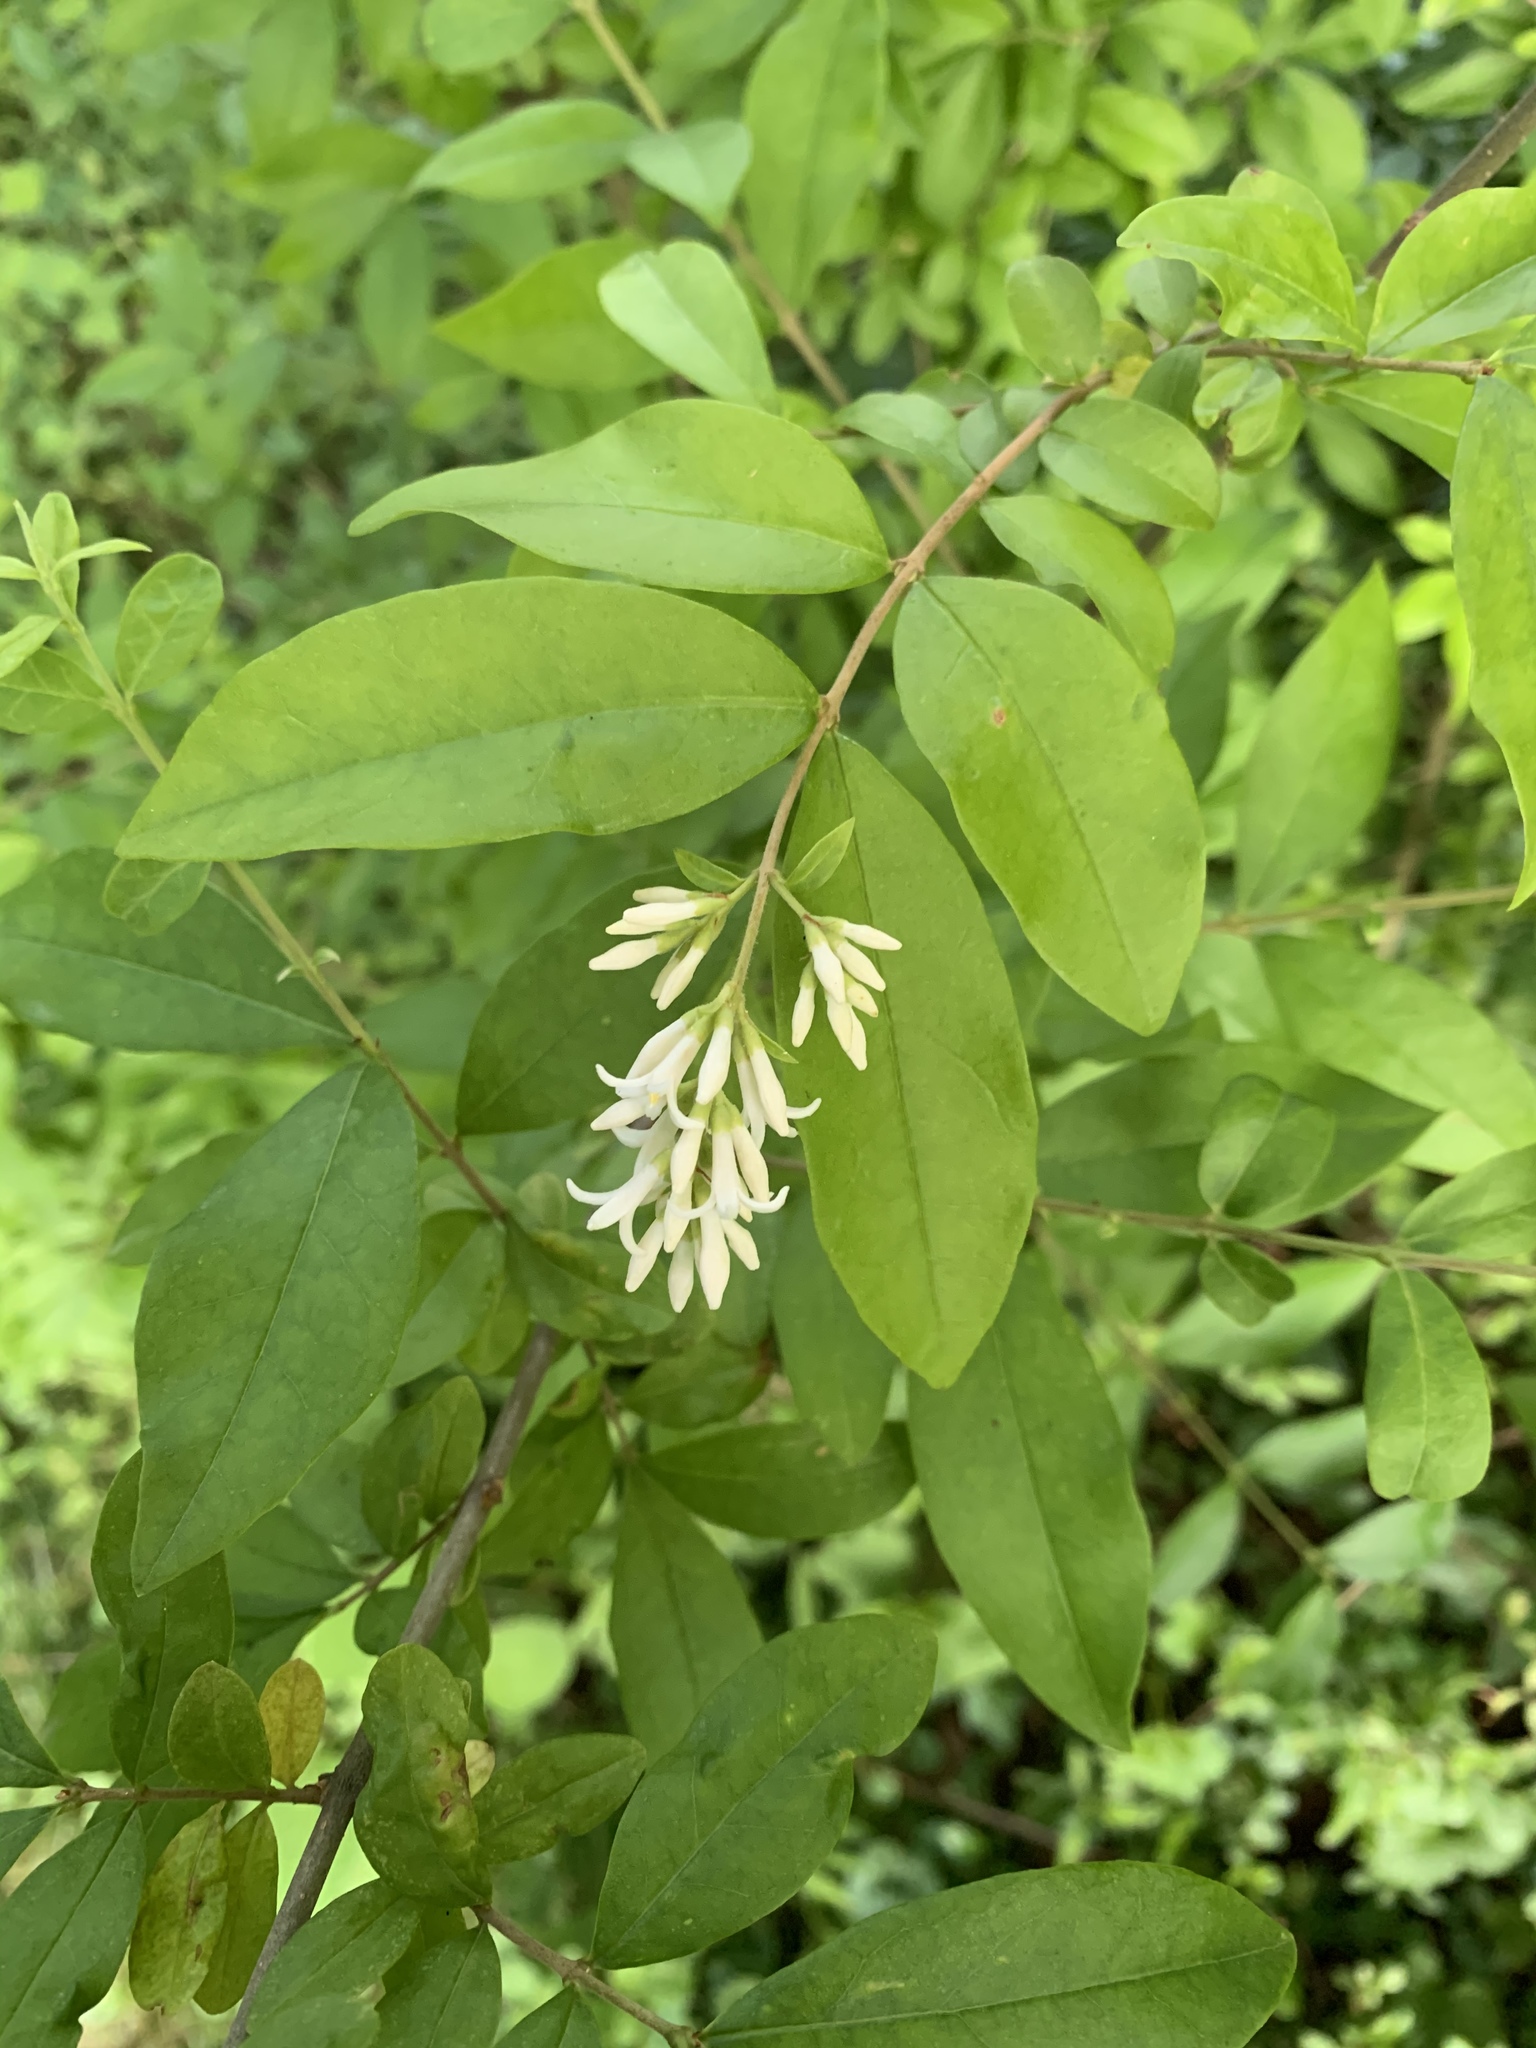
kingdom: Plantae
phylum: Tracheophyta
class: Magnoliopsida
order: Lamiales
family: Oleaceae
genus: Ligustrum
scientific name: Ligustrum obtusifolium
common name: Border privet
